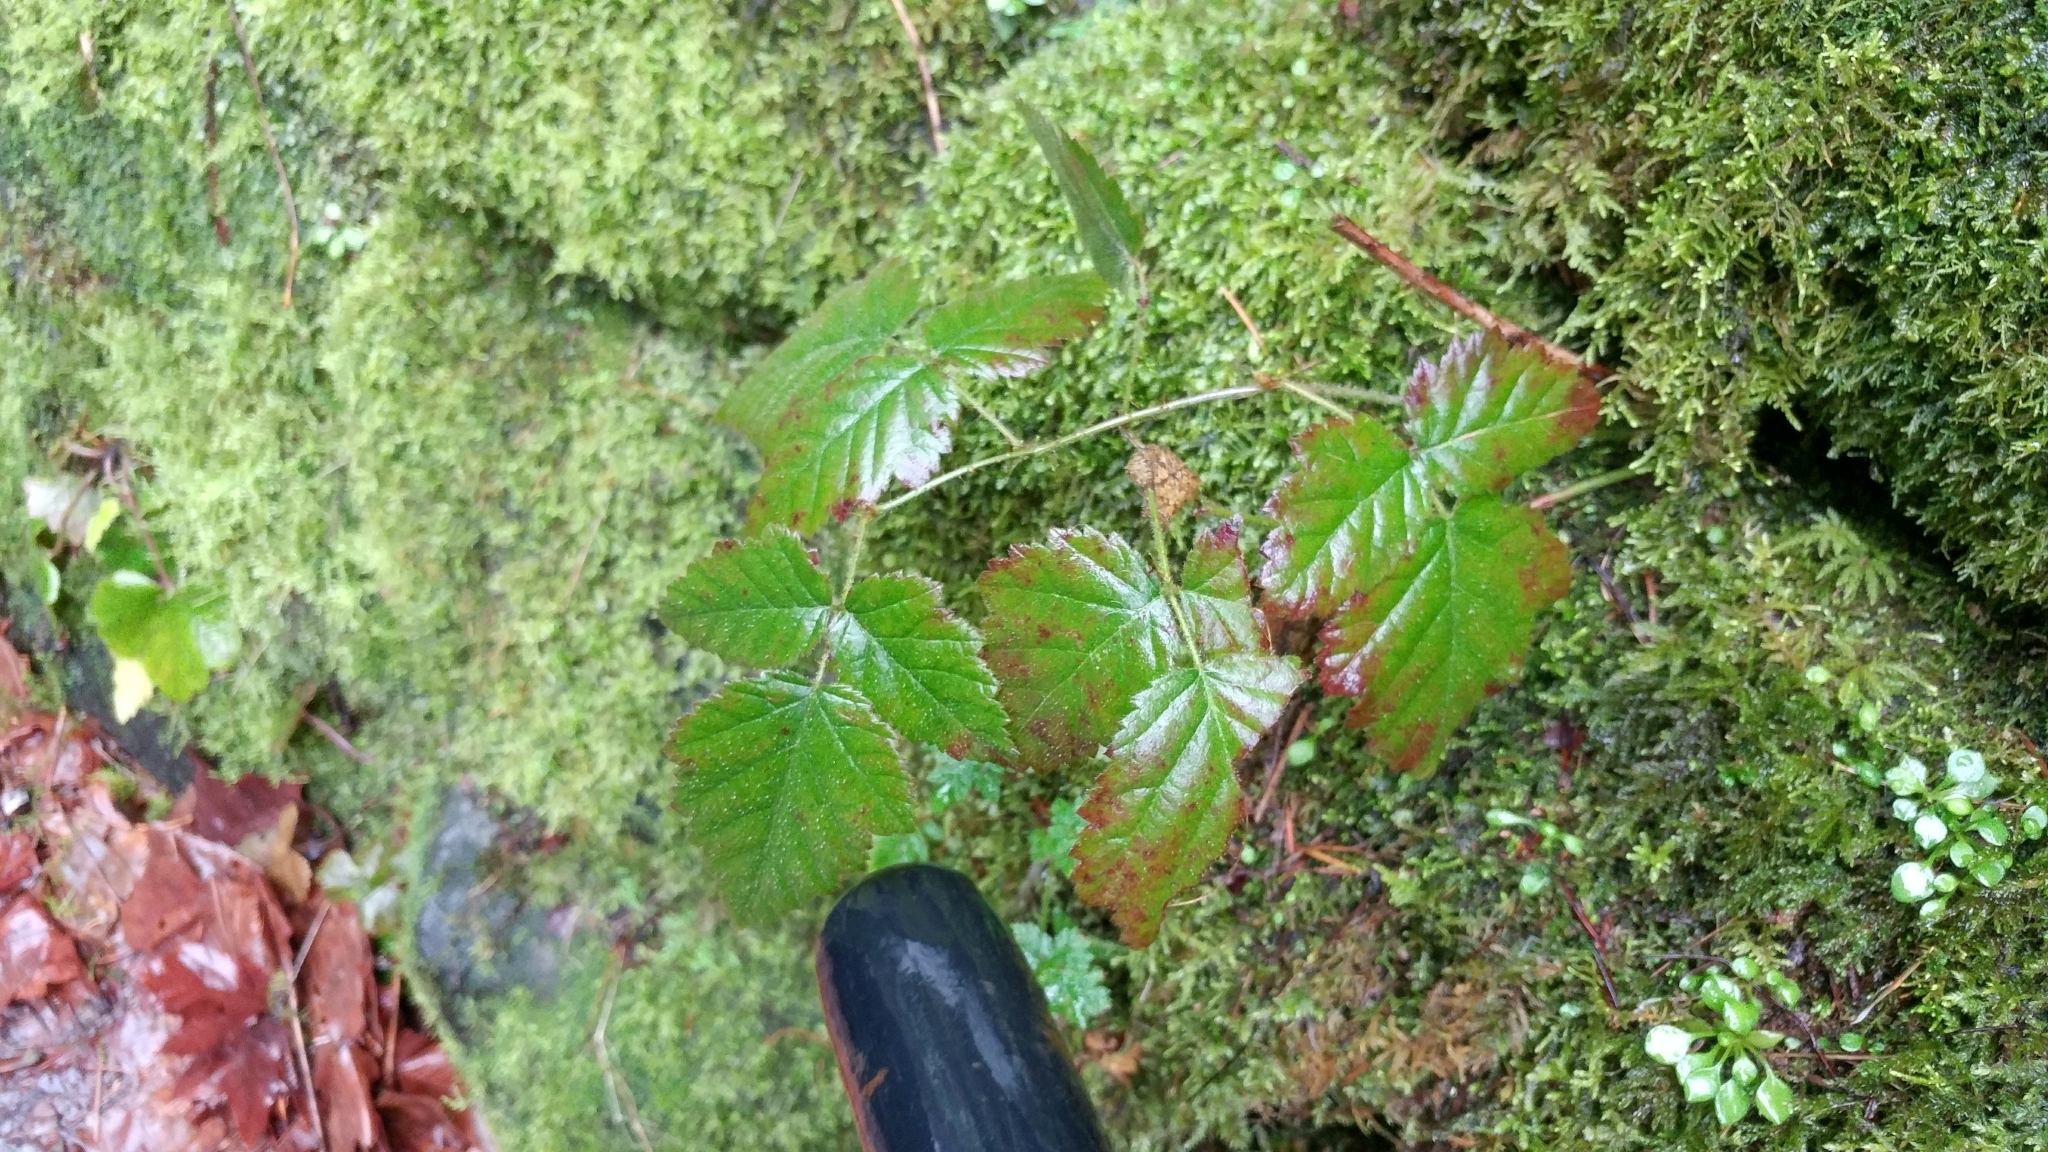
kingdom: Plantae
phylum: Tracheophyta
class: Magnoliopsida
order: Rosales
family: Rosaceae
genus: Rubus
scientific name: Rubus ursinus
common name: Pacific blackberry
